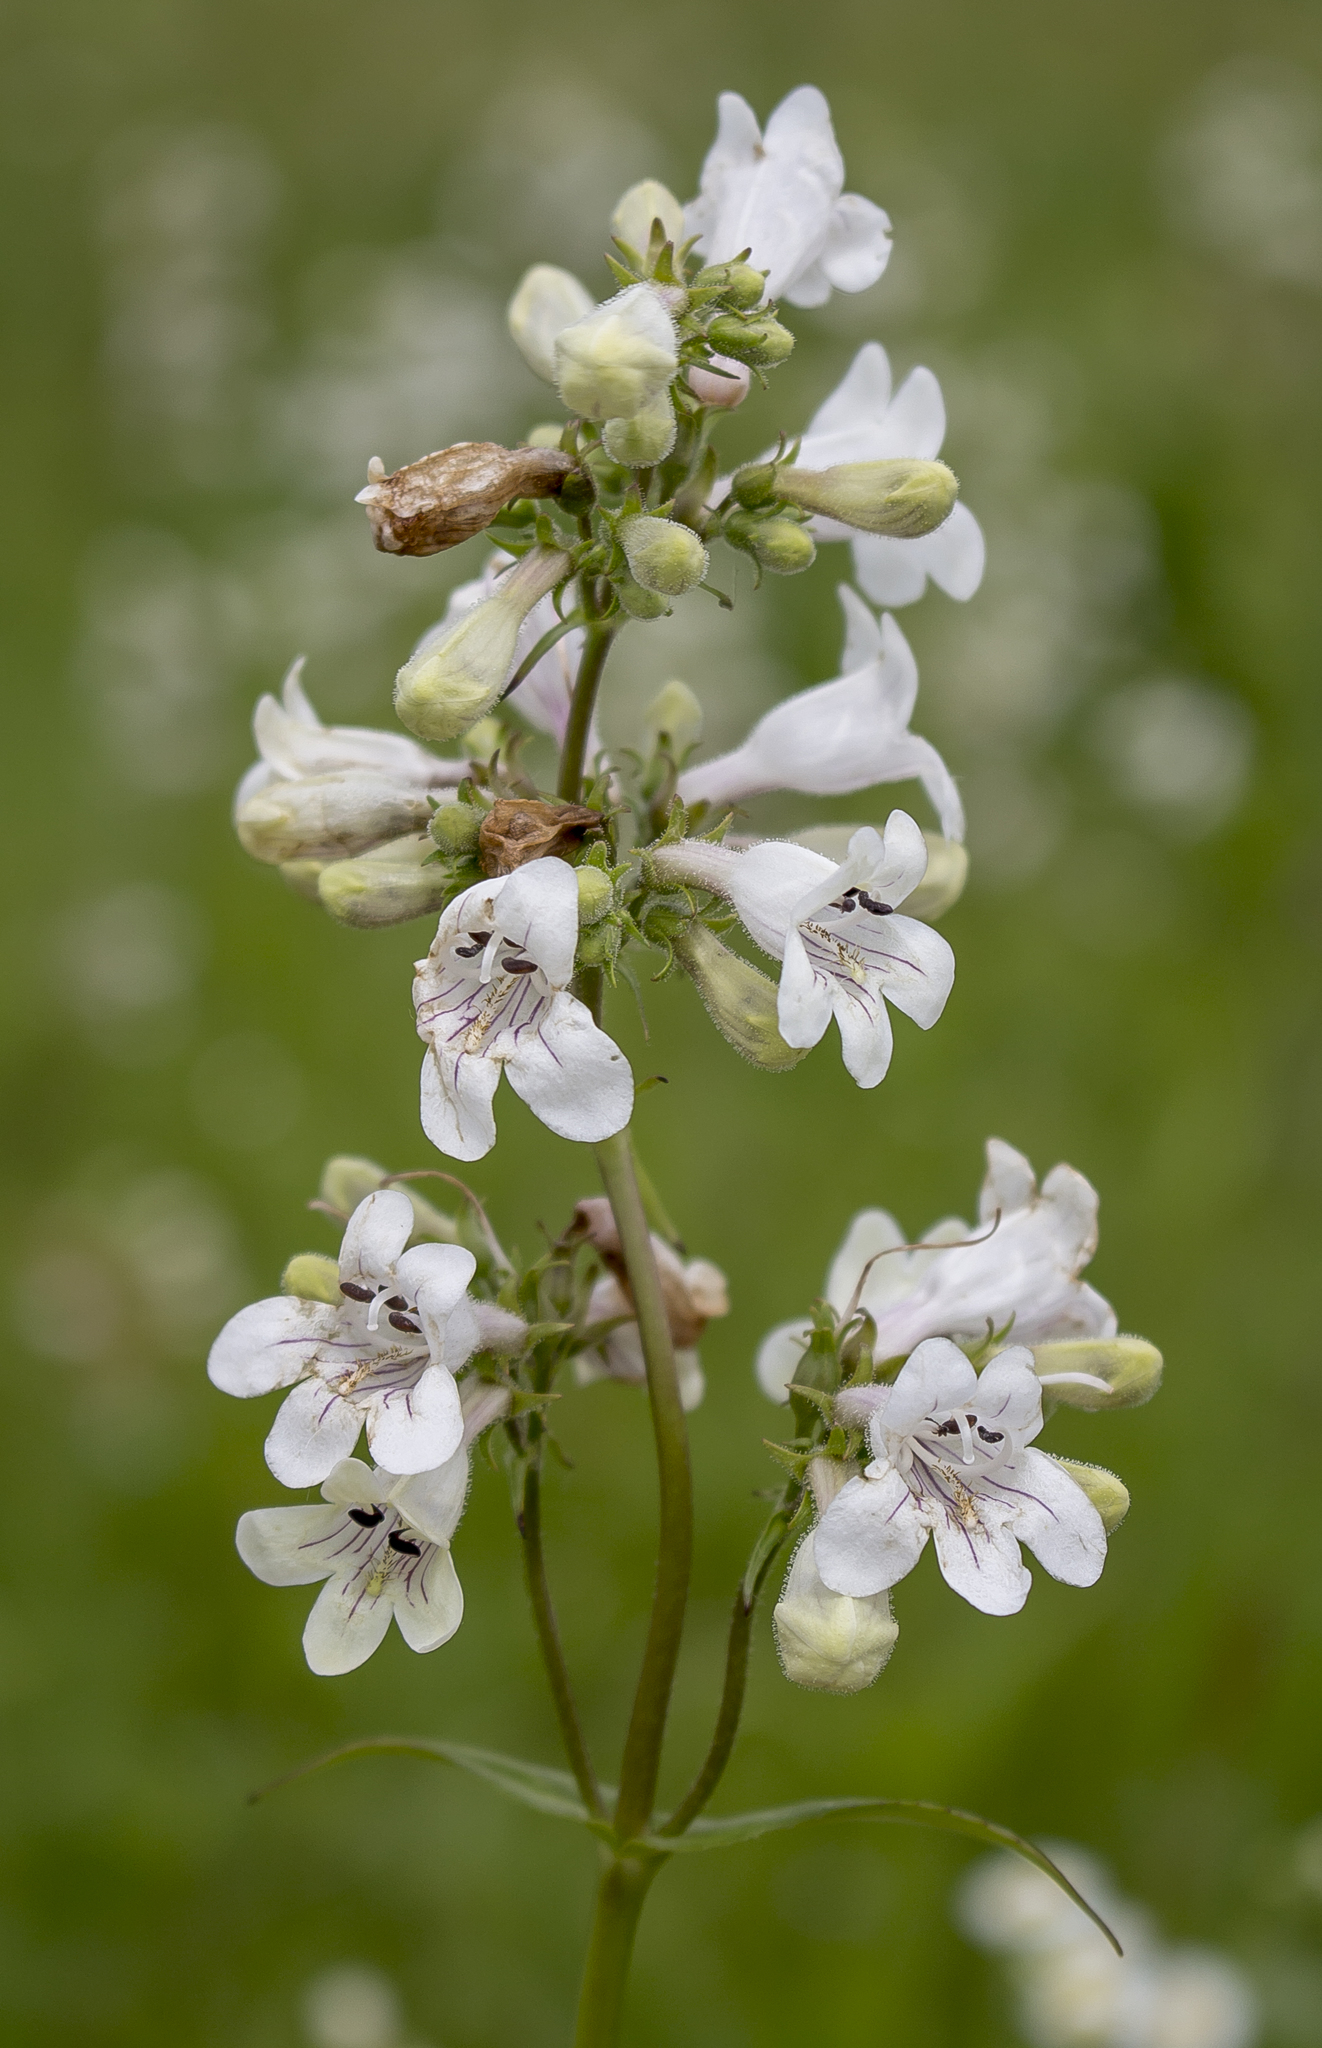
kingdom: Plantae
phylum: Tracheophyta
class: Magnoliopsida
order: Lamiales
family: Plantaginaceae
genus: Penstemon
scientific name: Penstemon digitalis
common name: Foxglove beardtongue
